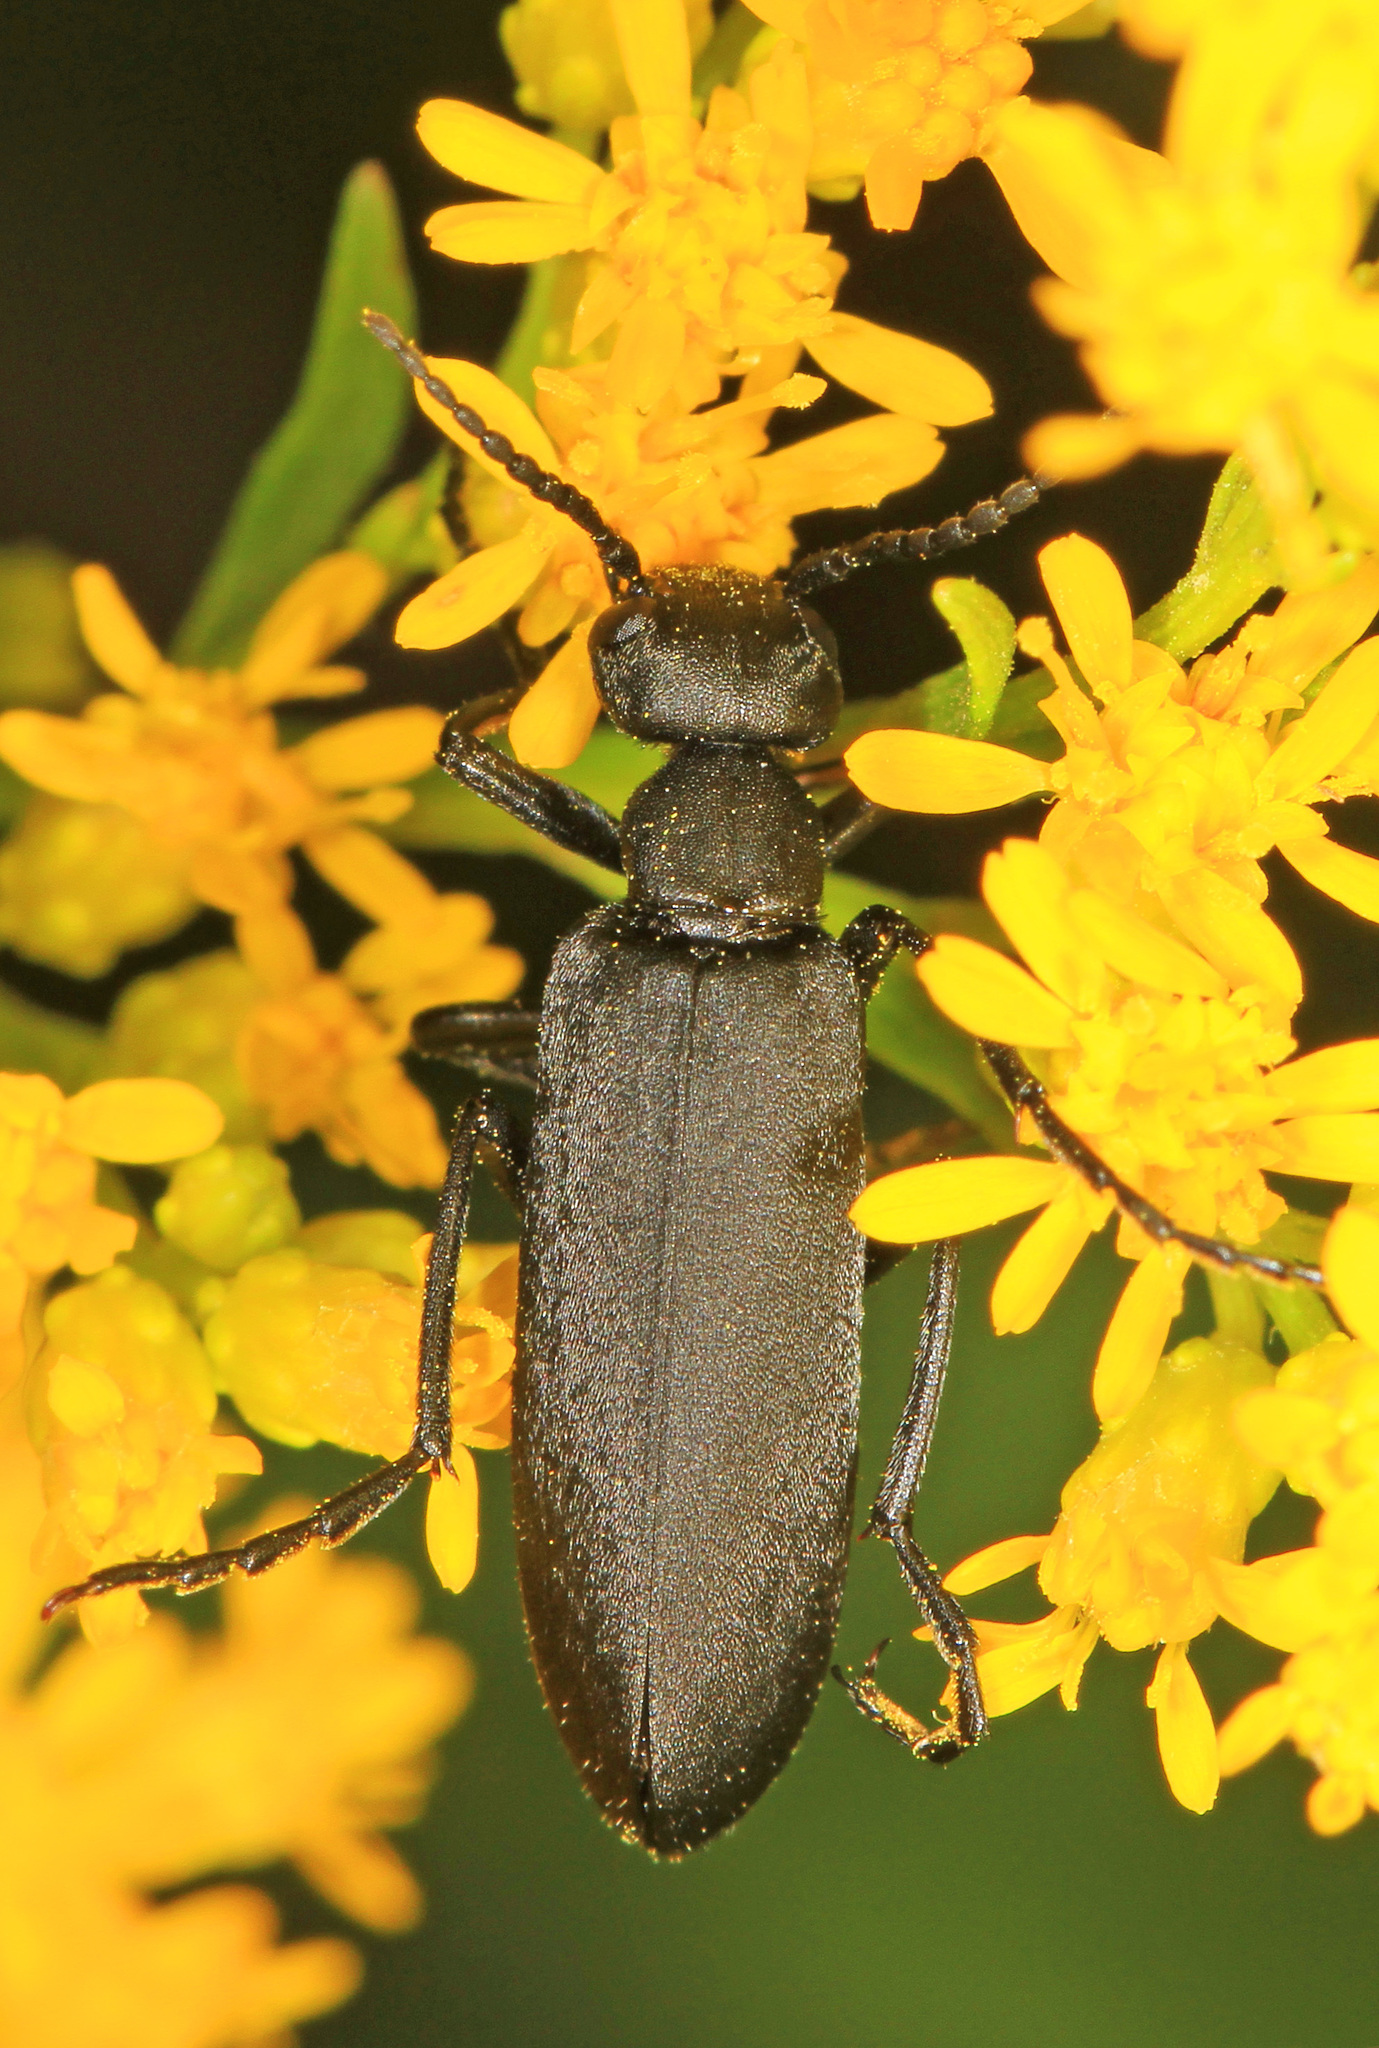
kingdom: Animalia
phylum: Arthropoda
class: Insecta
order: Coleoptera
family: Meloidae
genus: Epicauta
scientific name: Epicauta pensylvanica
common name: Black blister beetle
